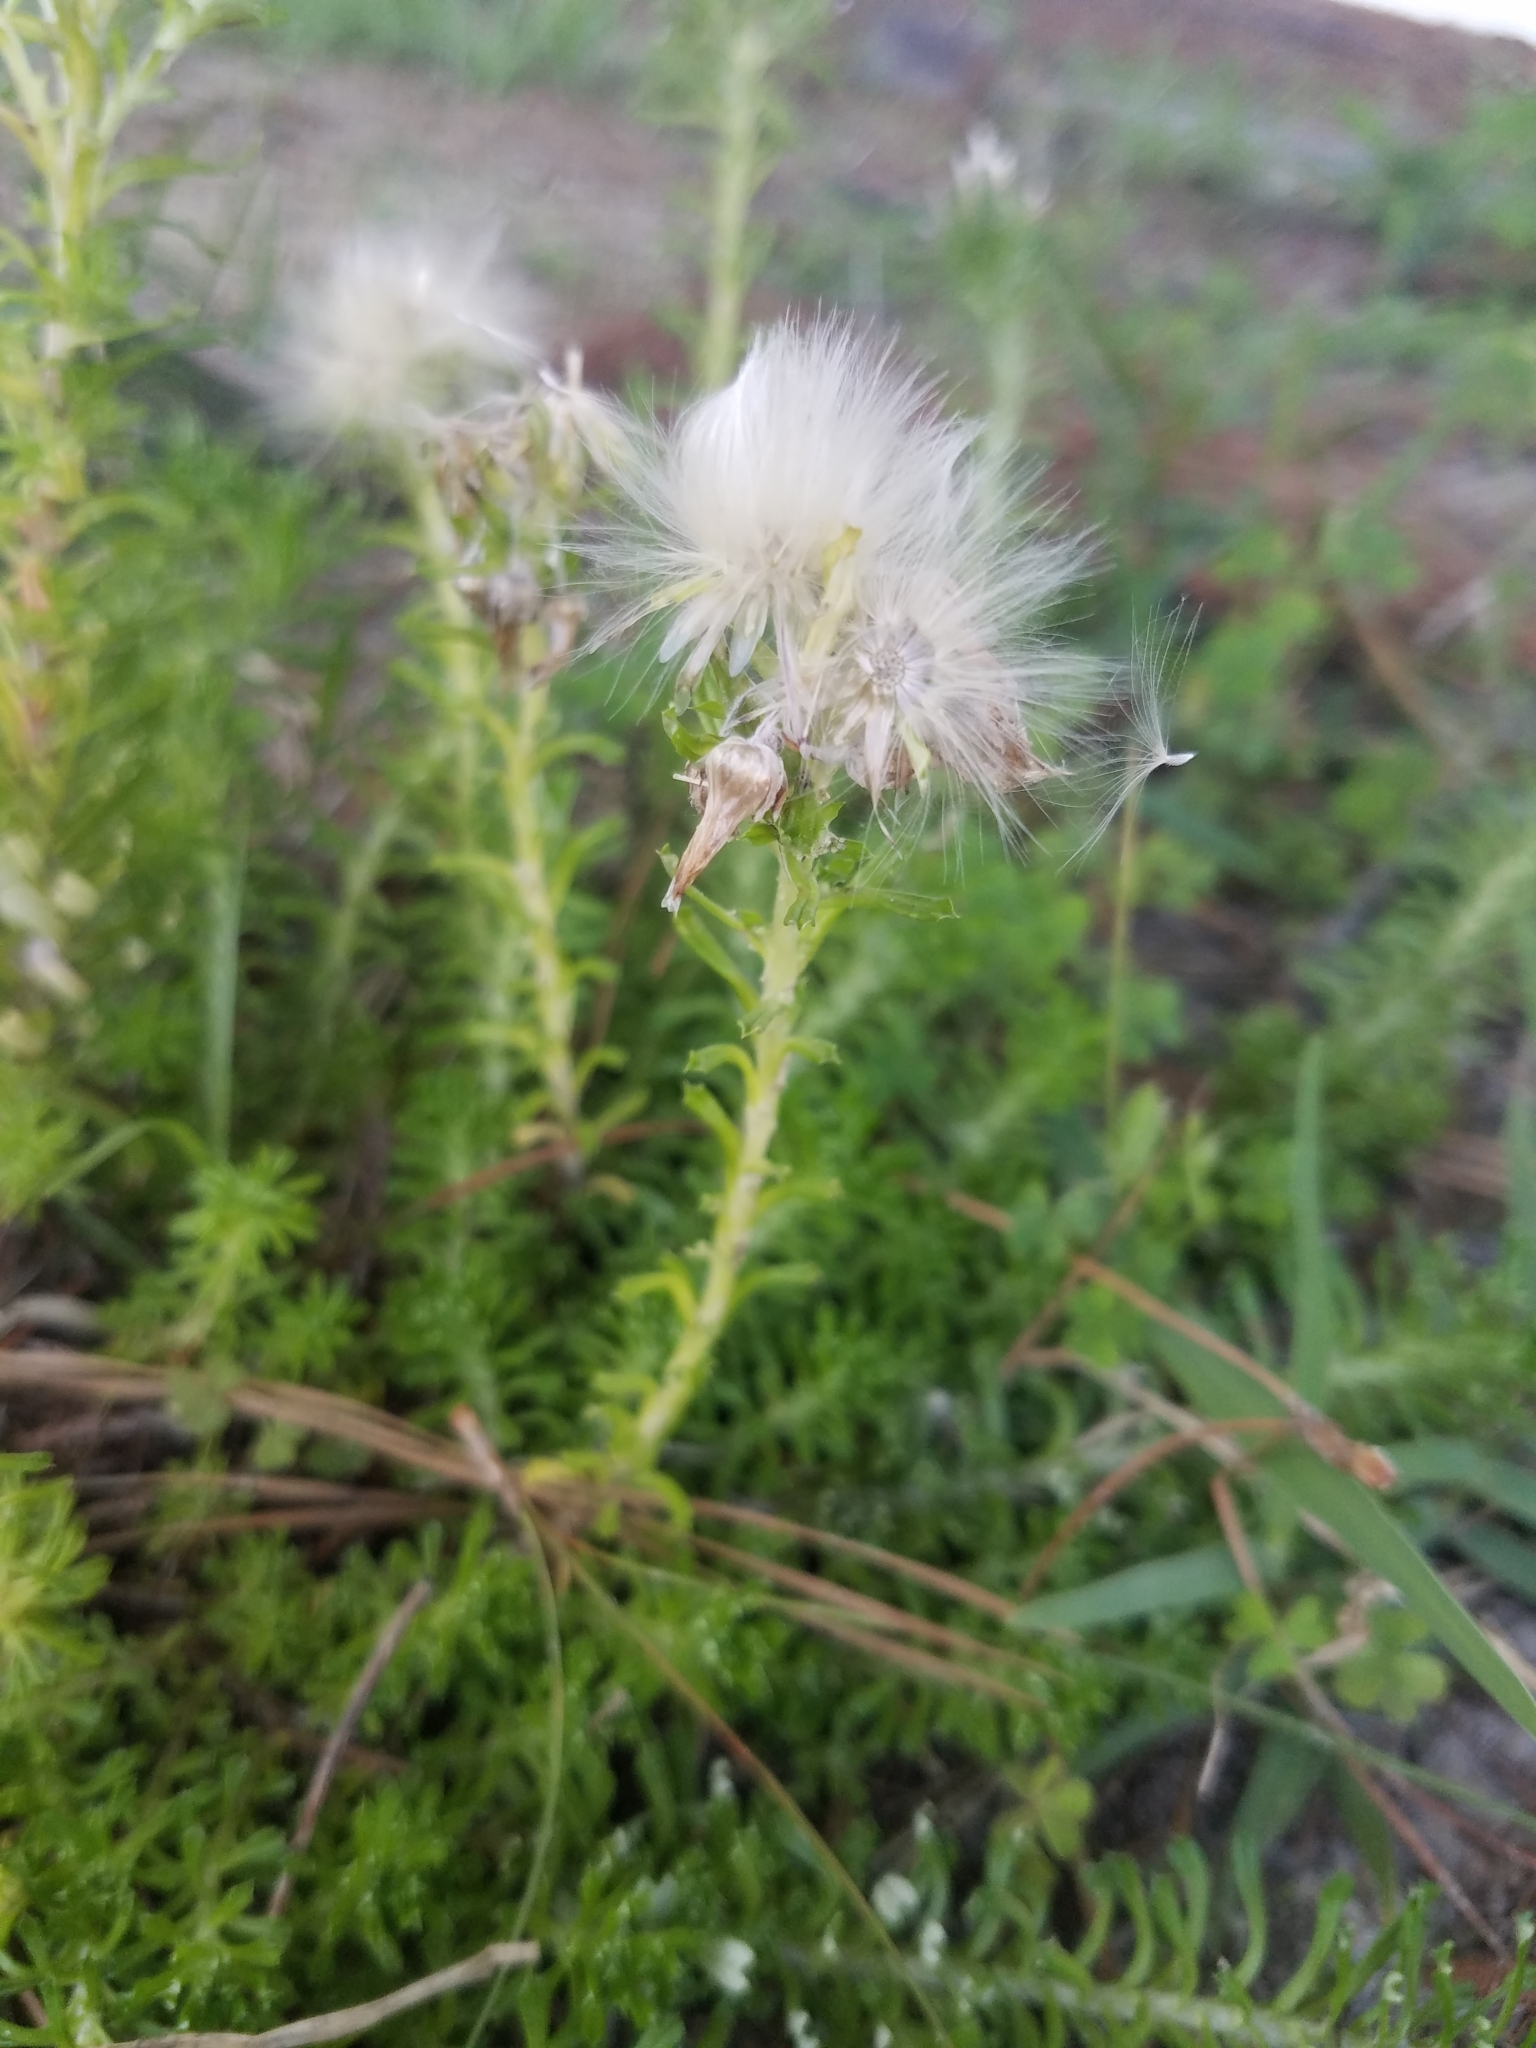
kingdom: Plantae
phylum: Tracheophyta
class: Magnoliopsida
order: Asterales
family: Asteraceae
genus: Facelis
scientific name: Facelis retusa
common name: Annual trampweed
